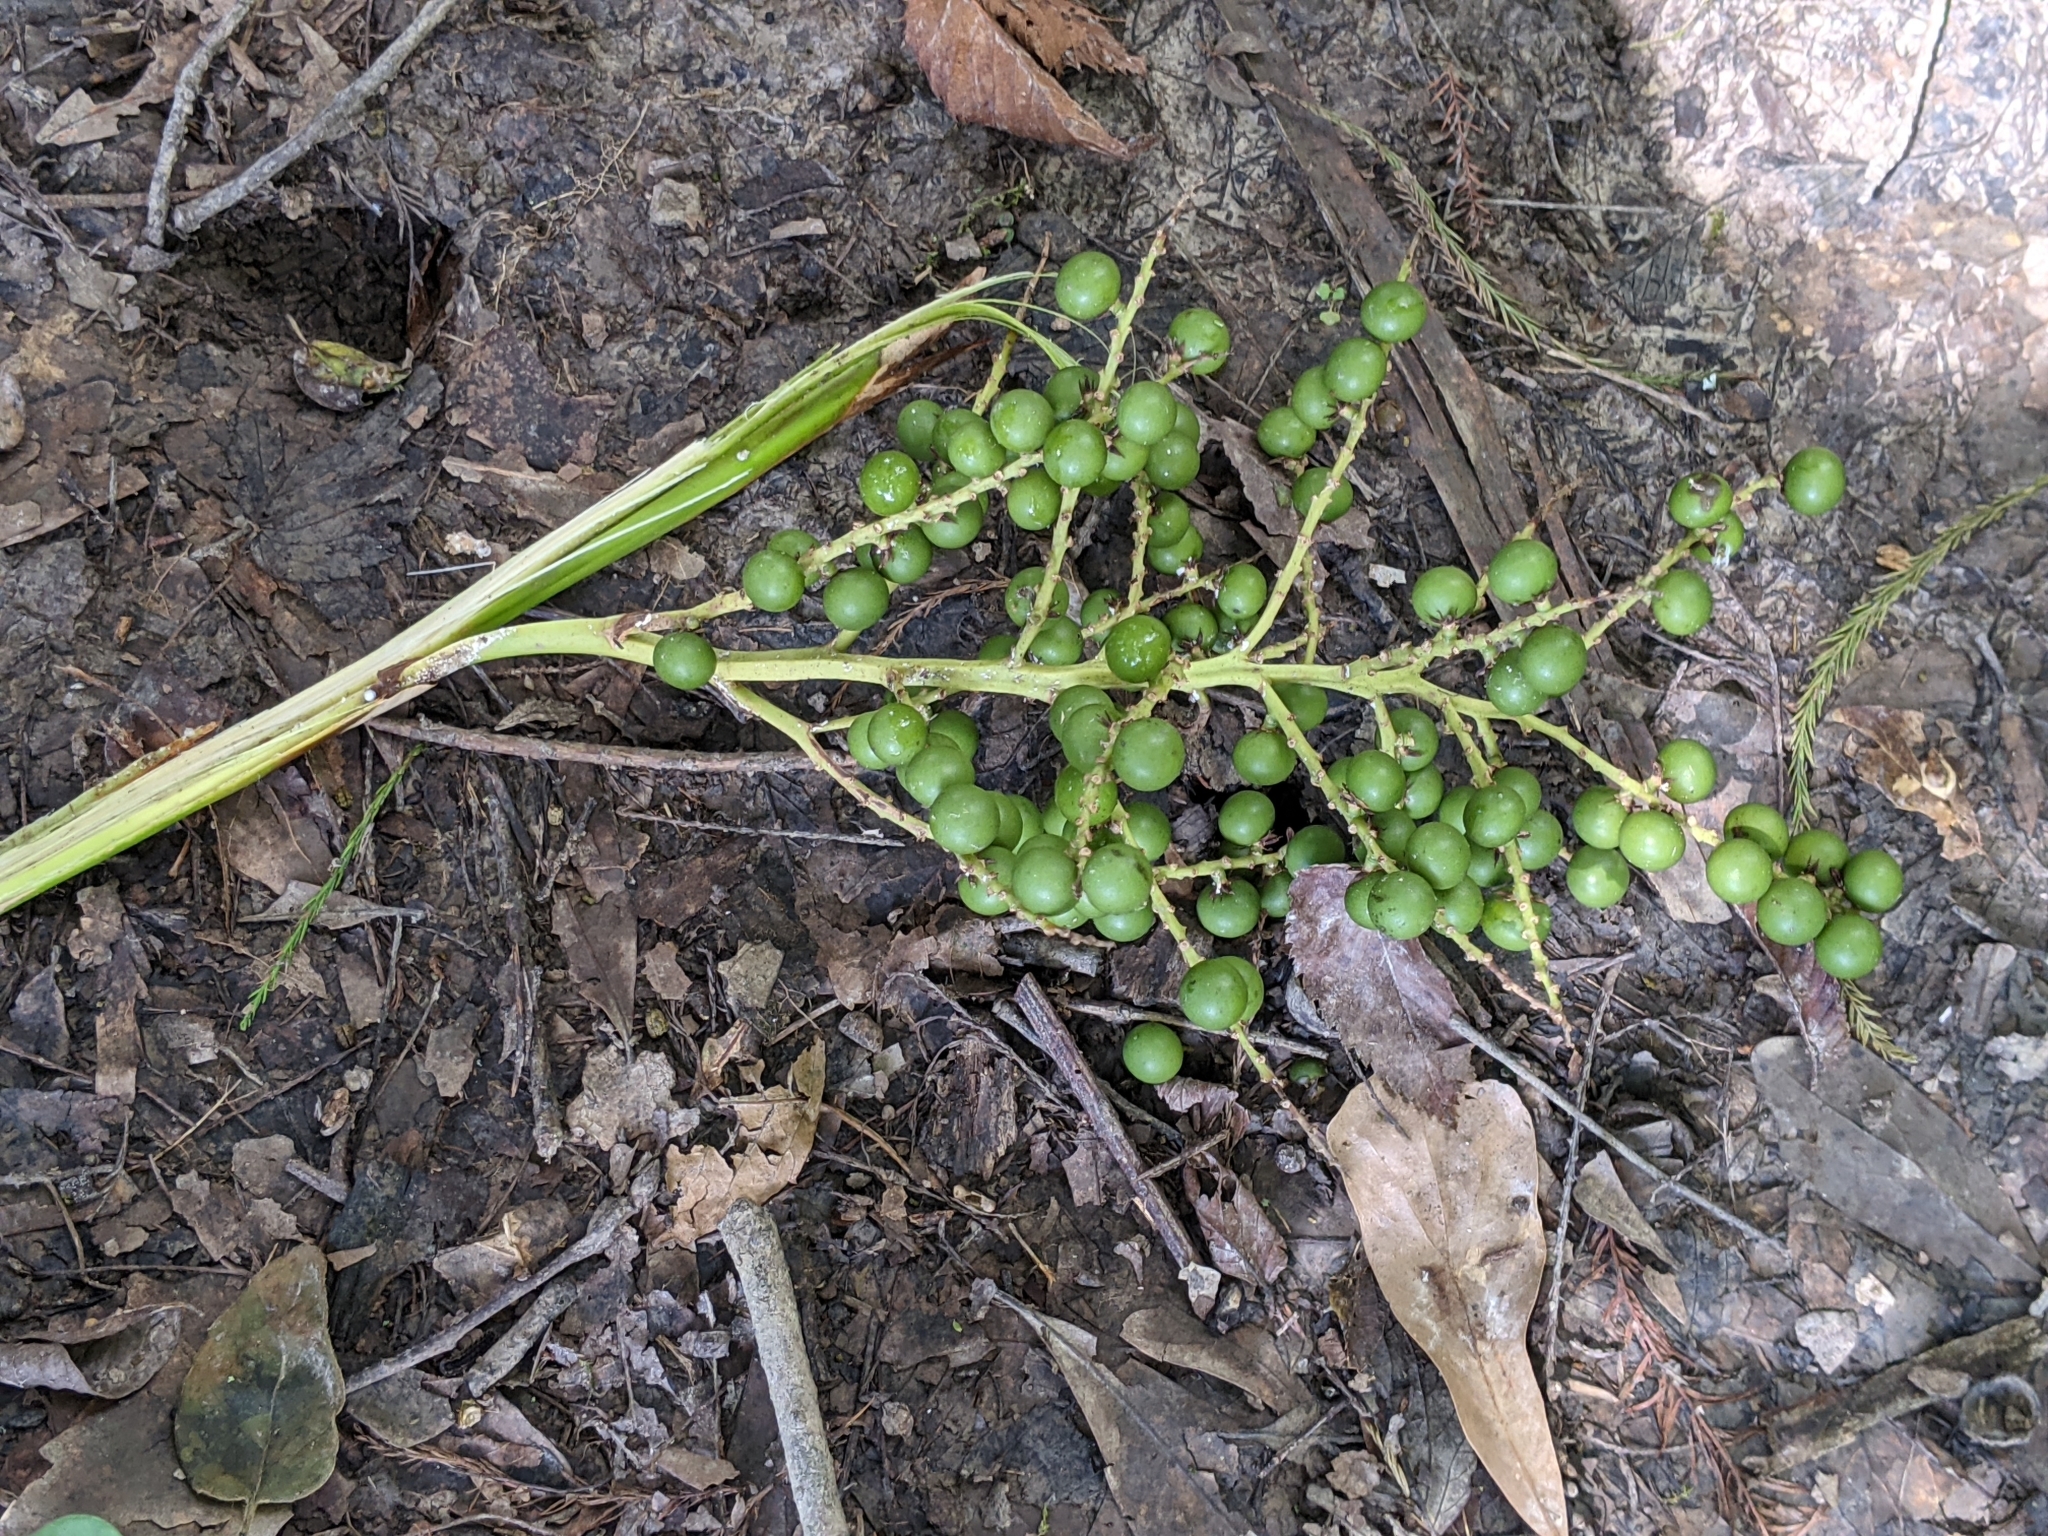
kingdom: Plantae
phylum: Tracheophyta
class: Liliopsida
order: Arecales
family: Arecaceae
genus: Sabal
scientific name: Sabal minor
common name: Dwarf palmetto
